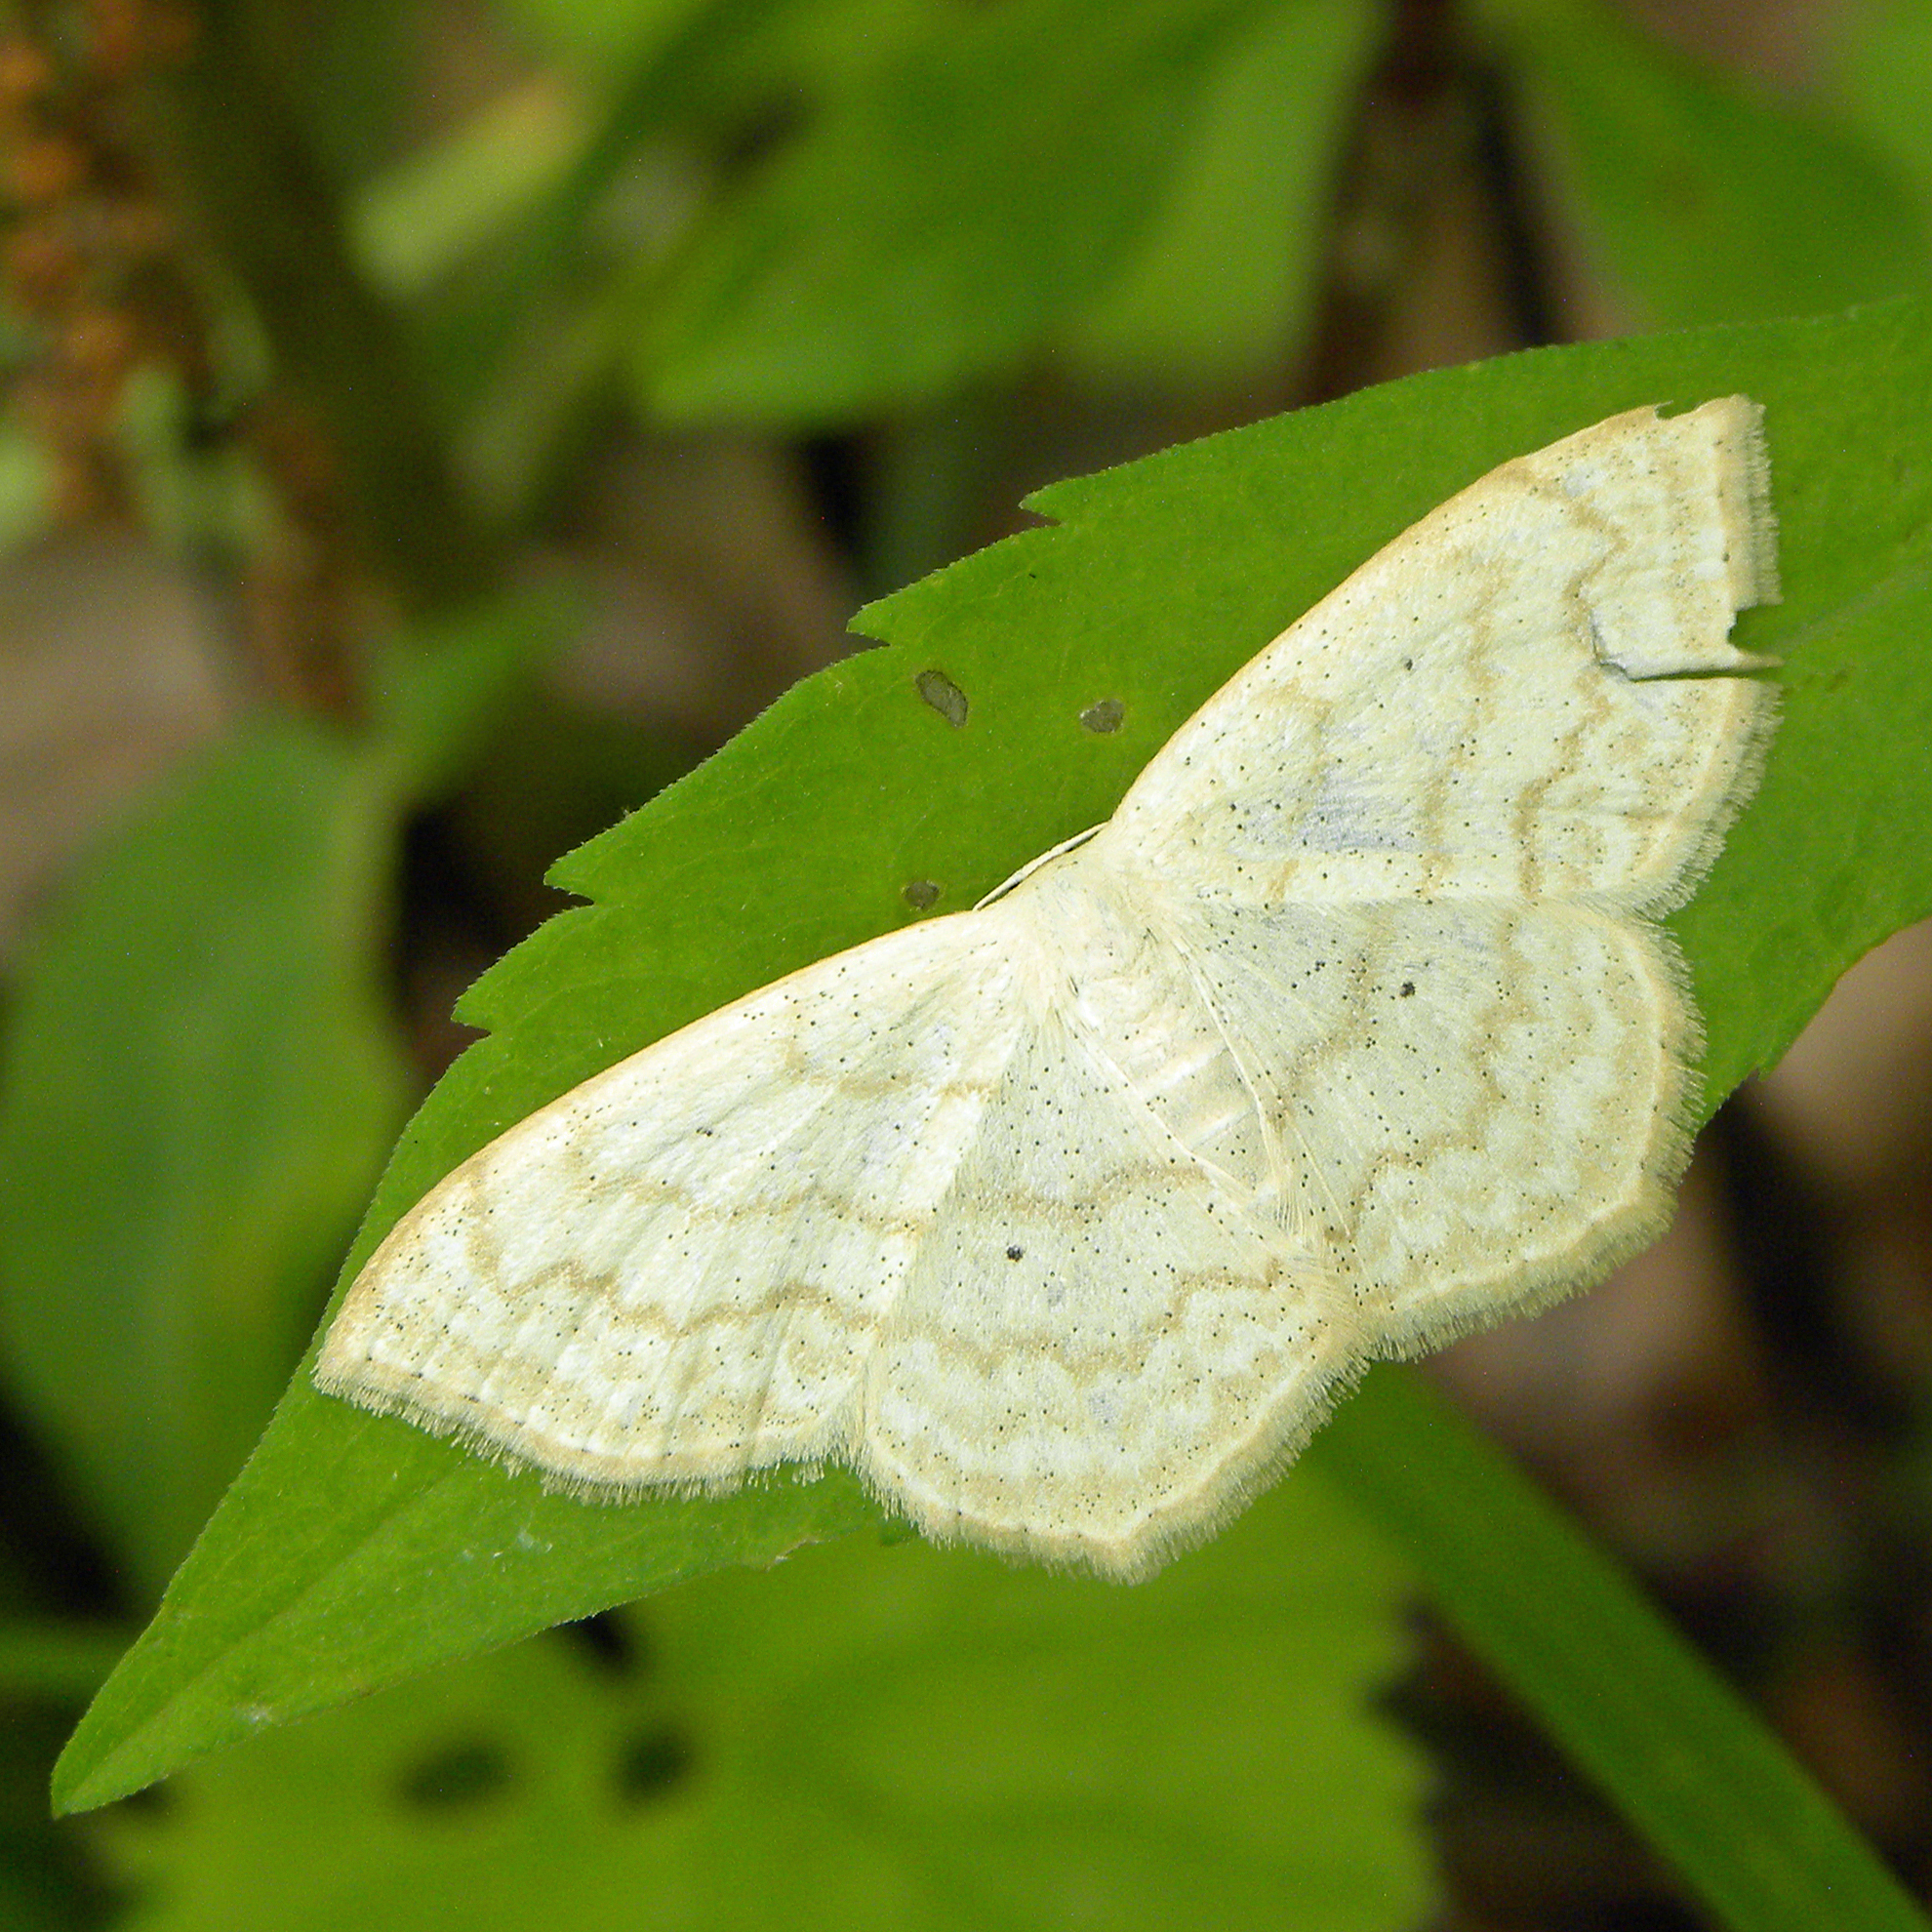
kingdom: Animalia
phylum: Arthropoda
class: Insecta
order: Lepidoptera
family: Geometridae
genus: Scopula
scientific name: Scopula limboundata
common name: Large lace border
